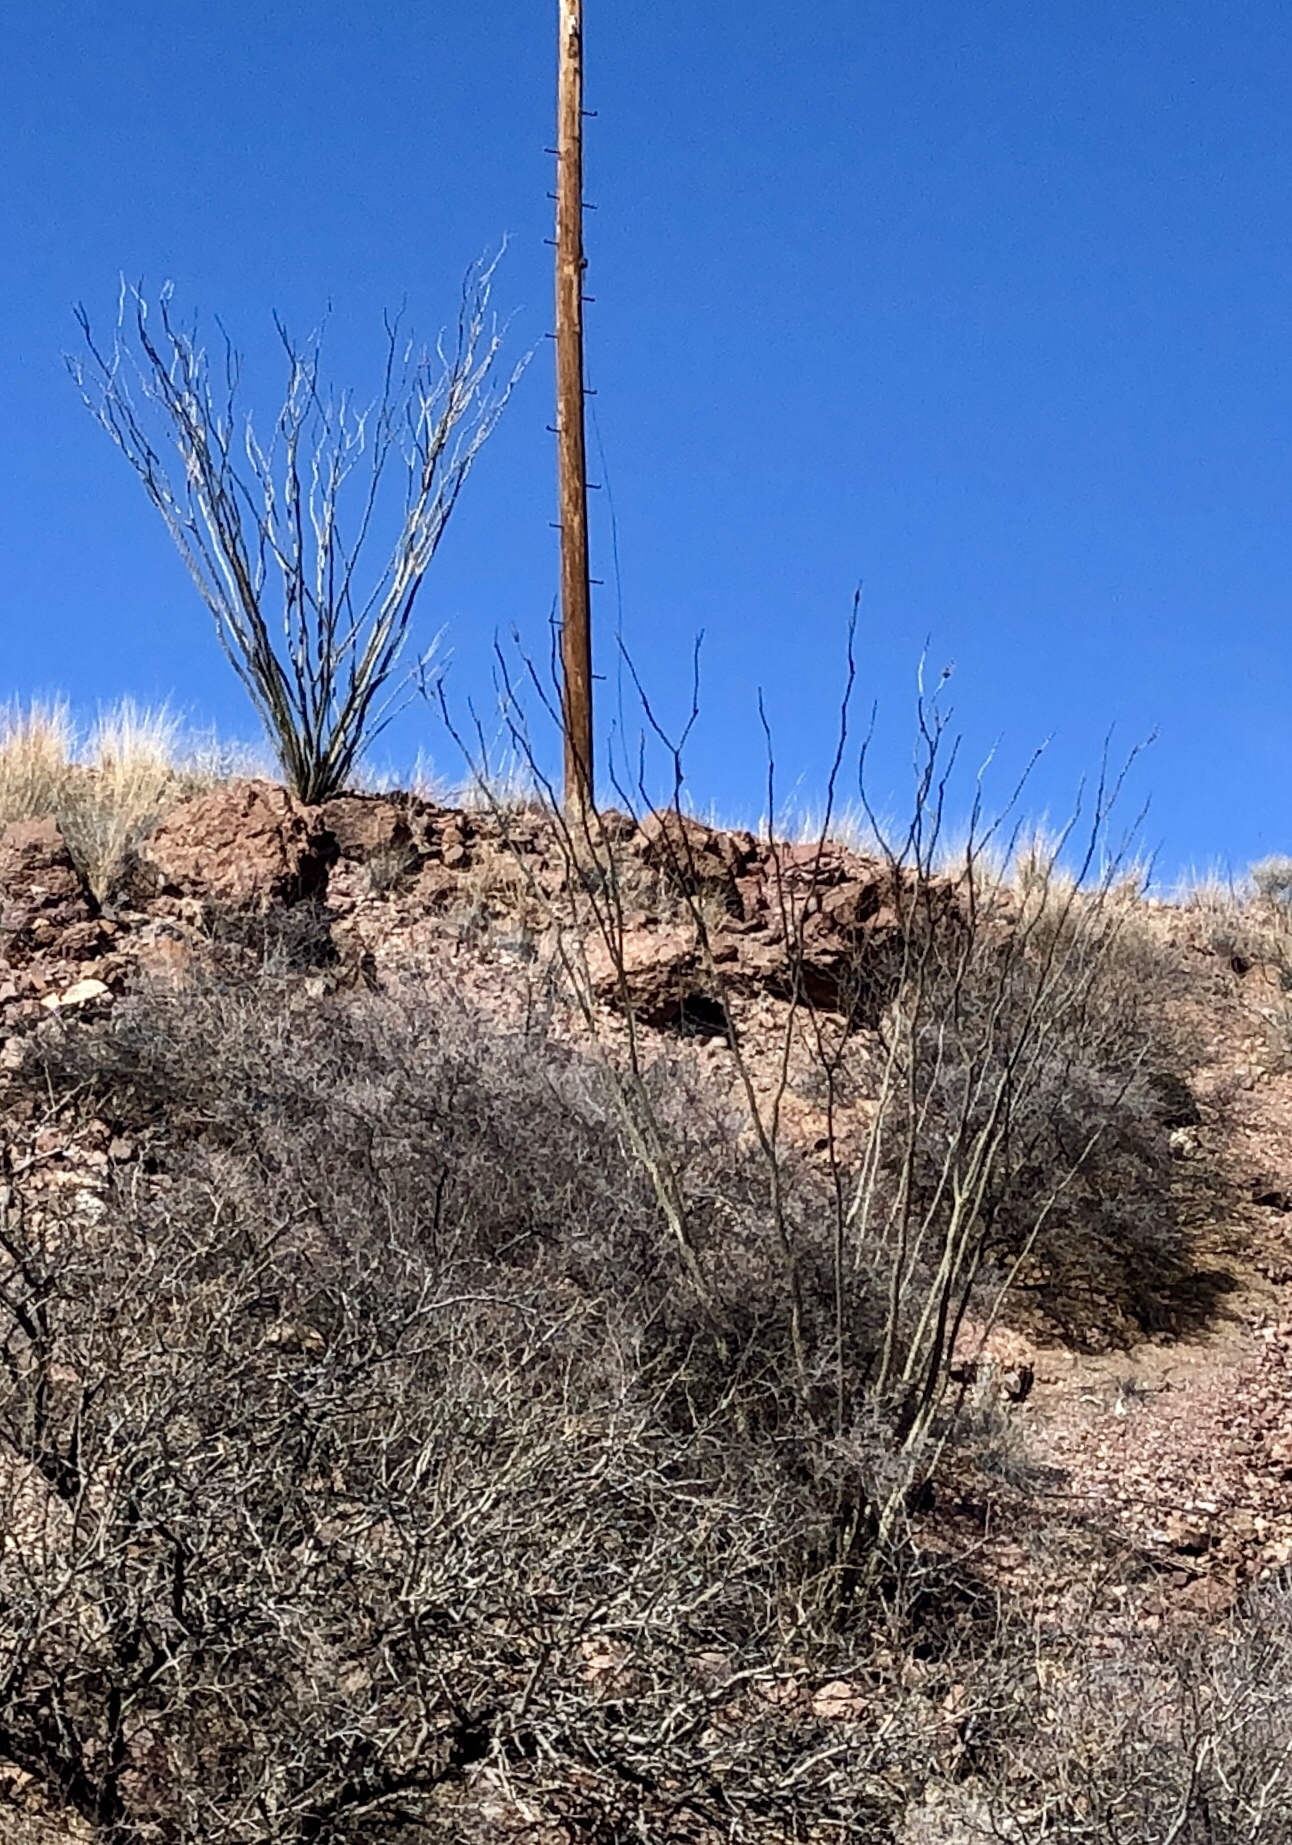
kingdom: Plantae
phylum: Tracheophyta
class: Magnoliopsida
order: Ericales
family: Fouquieriaceae
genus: Fouquieria
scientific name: Fouquieria splendens
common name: Vine-cactus
